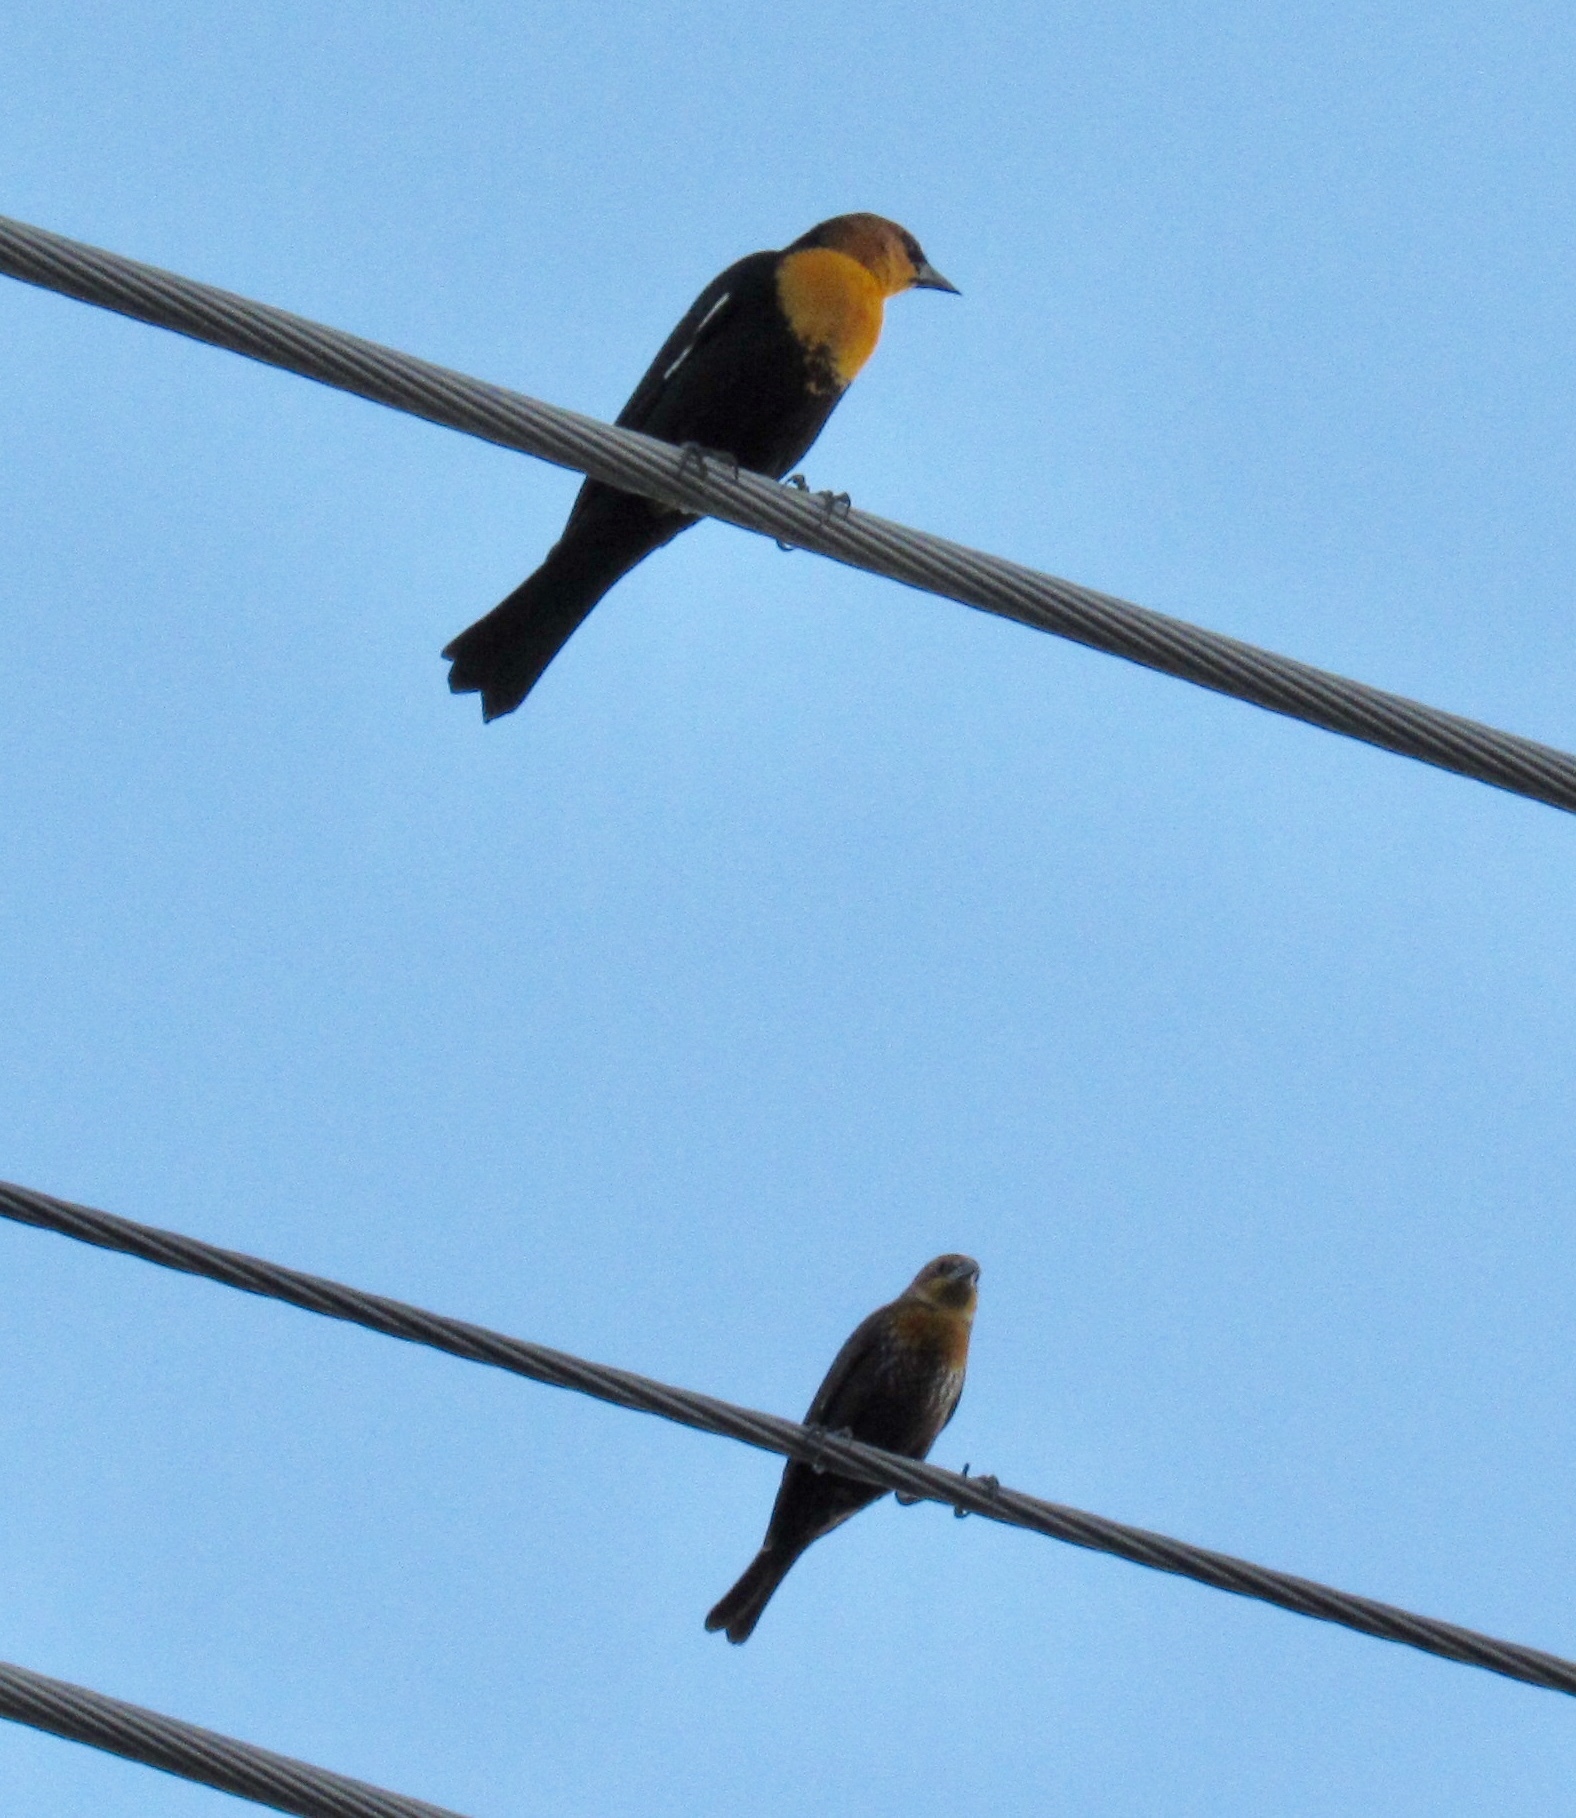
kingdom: Animalia
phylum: Chordata
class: Aves
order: Passeriformes
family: Icteridae
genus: Xanthocephalus
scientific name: Xanthocephalus xanthocephalus
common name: Yellow-headed blackbird
